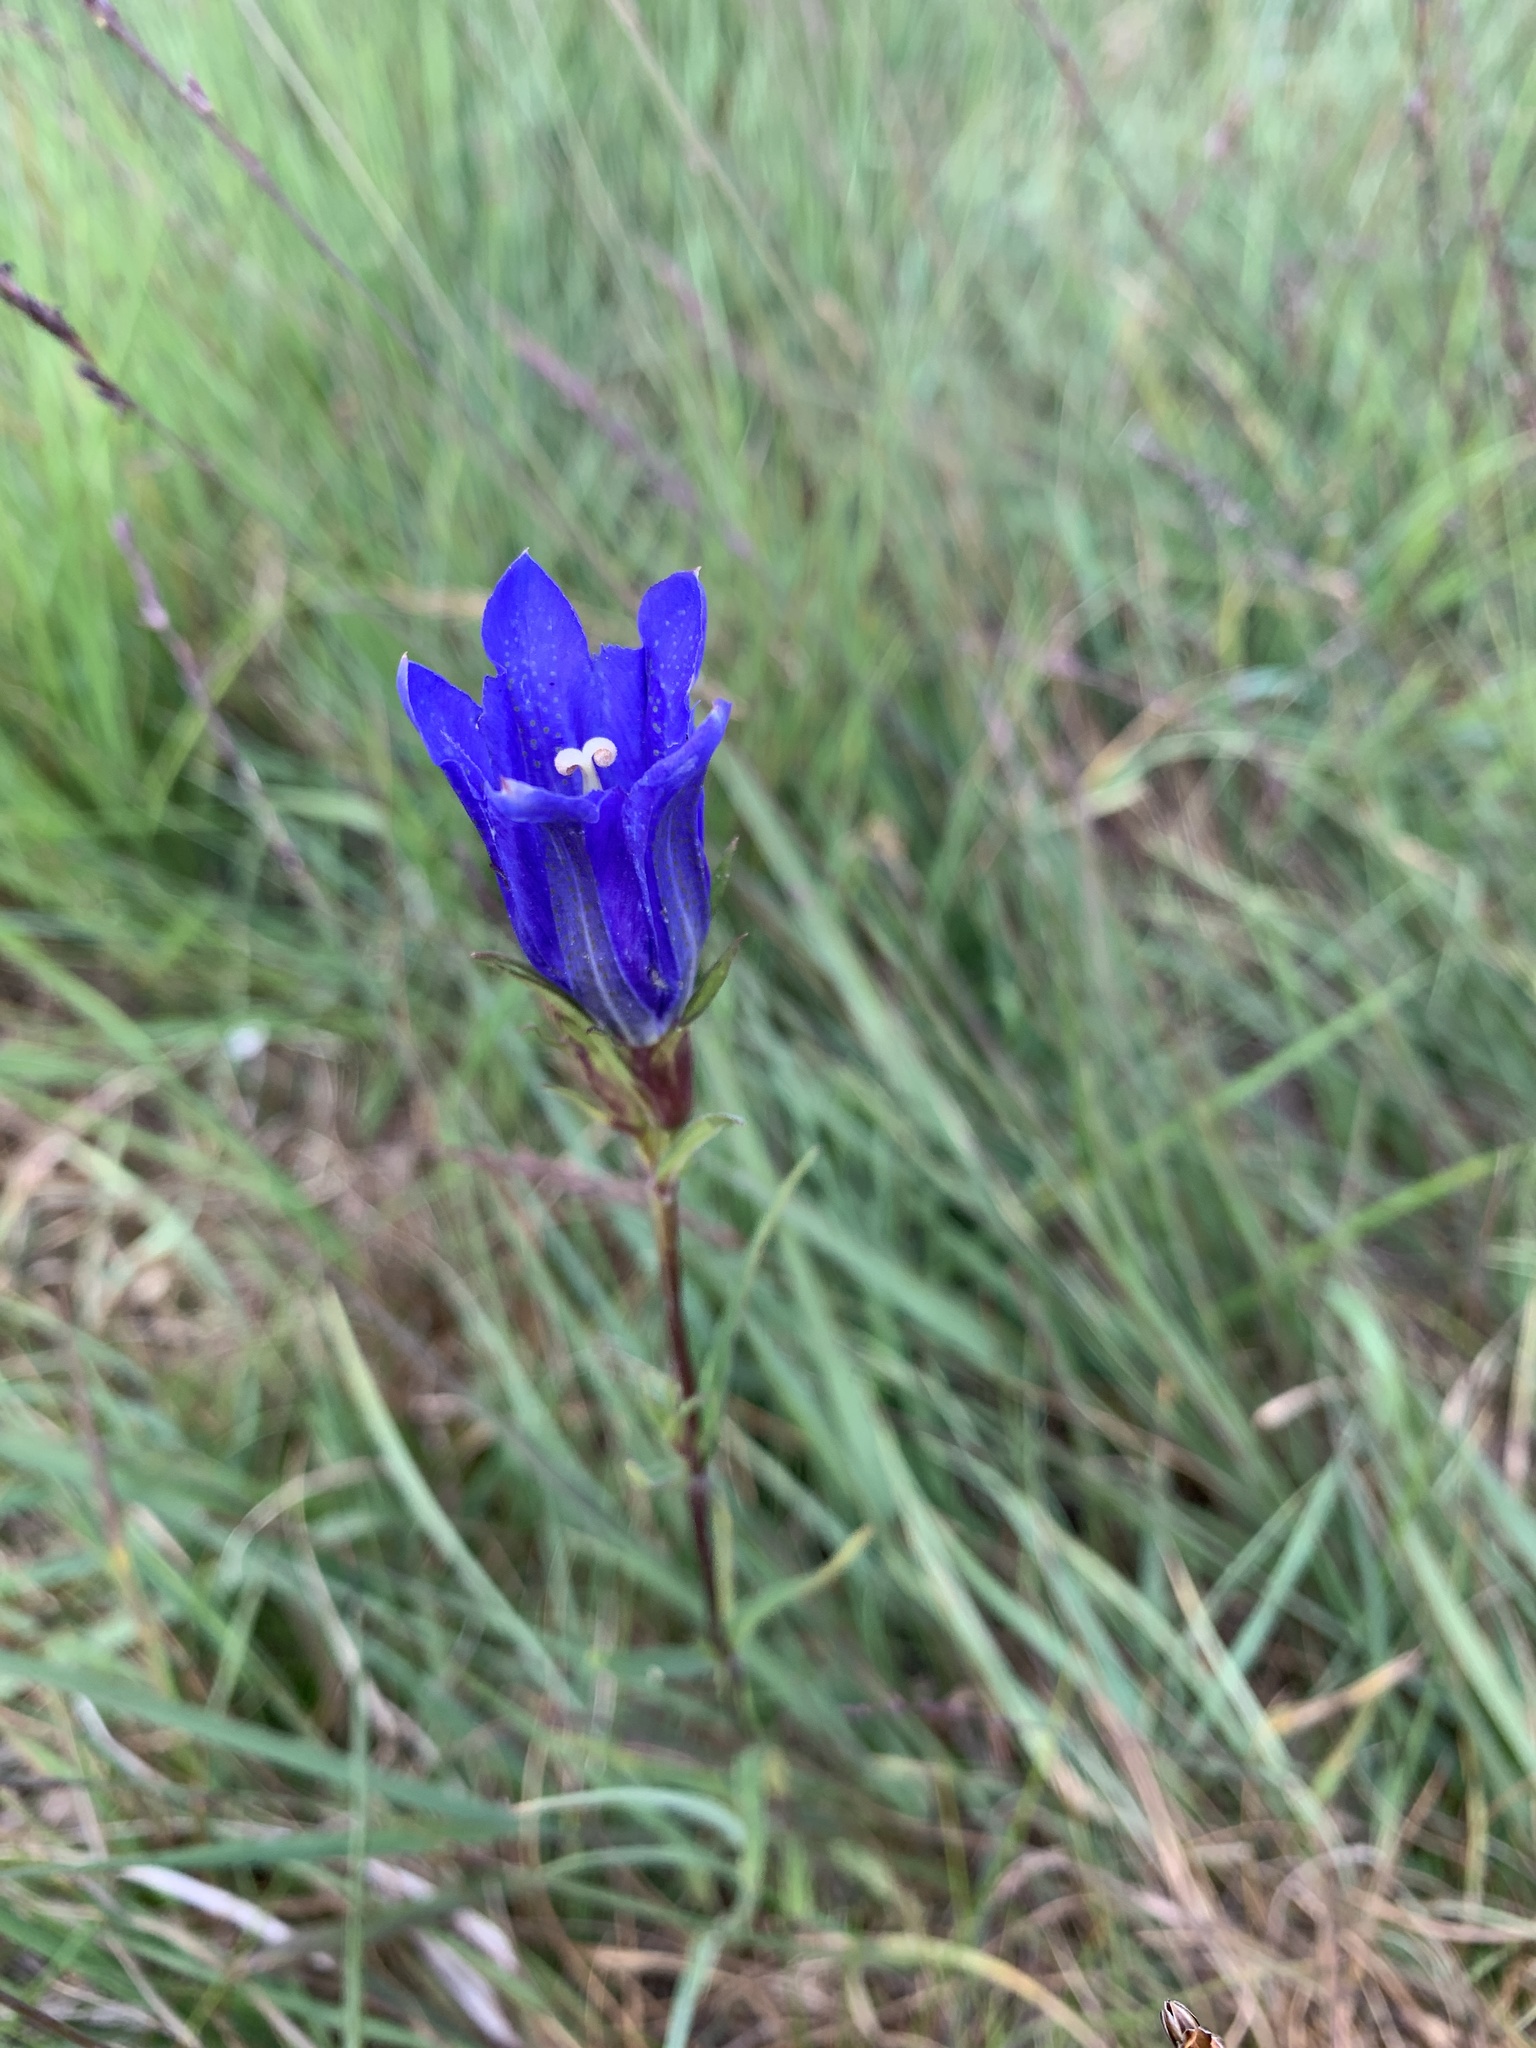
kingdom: Plantae
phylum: Tracheophyta
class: Magnoliopsida
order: Gentianales
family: Gentianaceae
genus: Gentiana
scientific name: Gentiana pneumonanthe
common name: Marsh gentian
